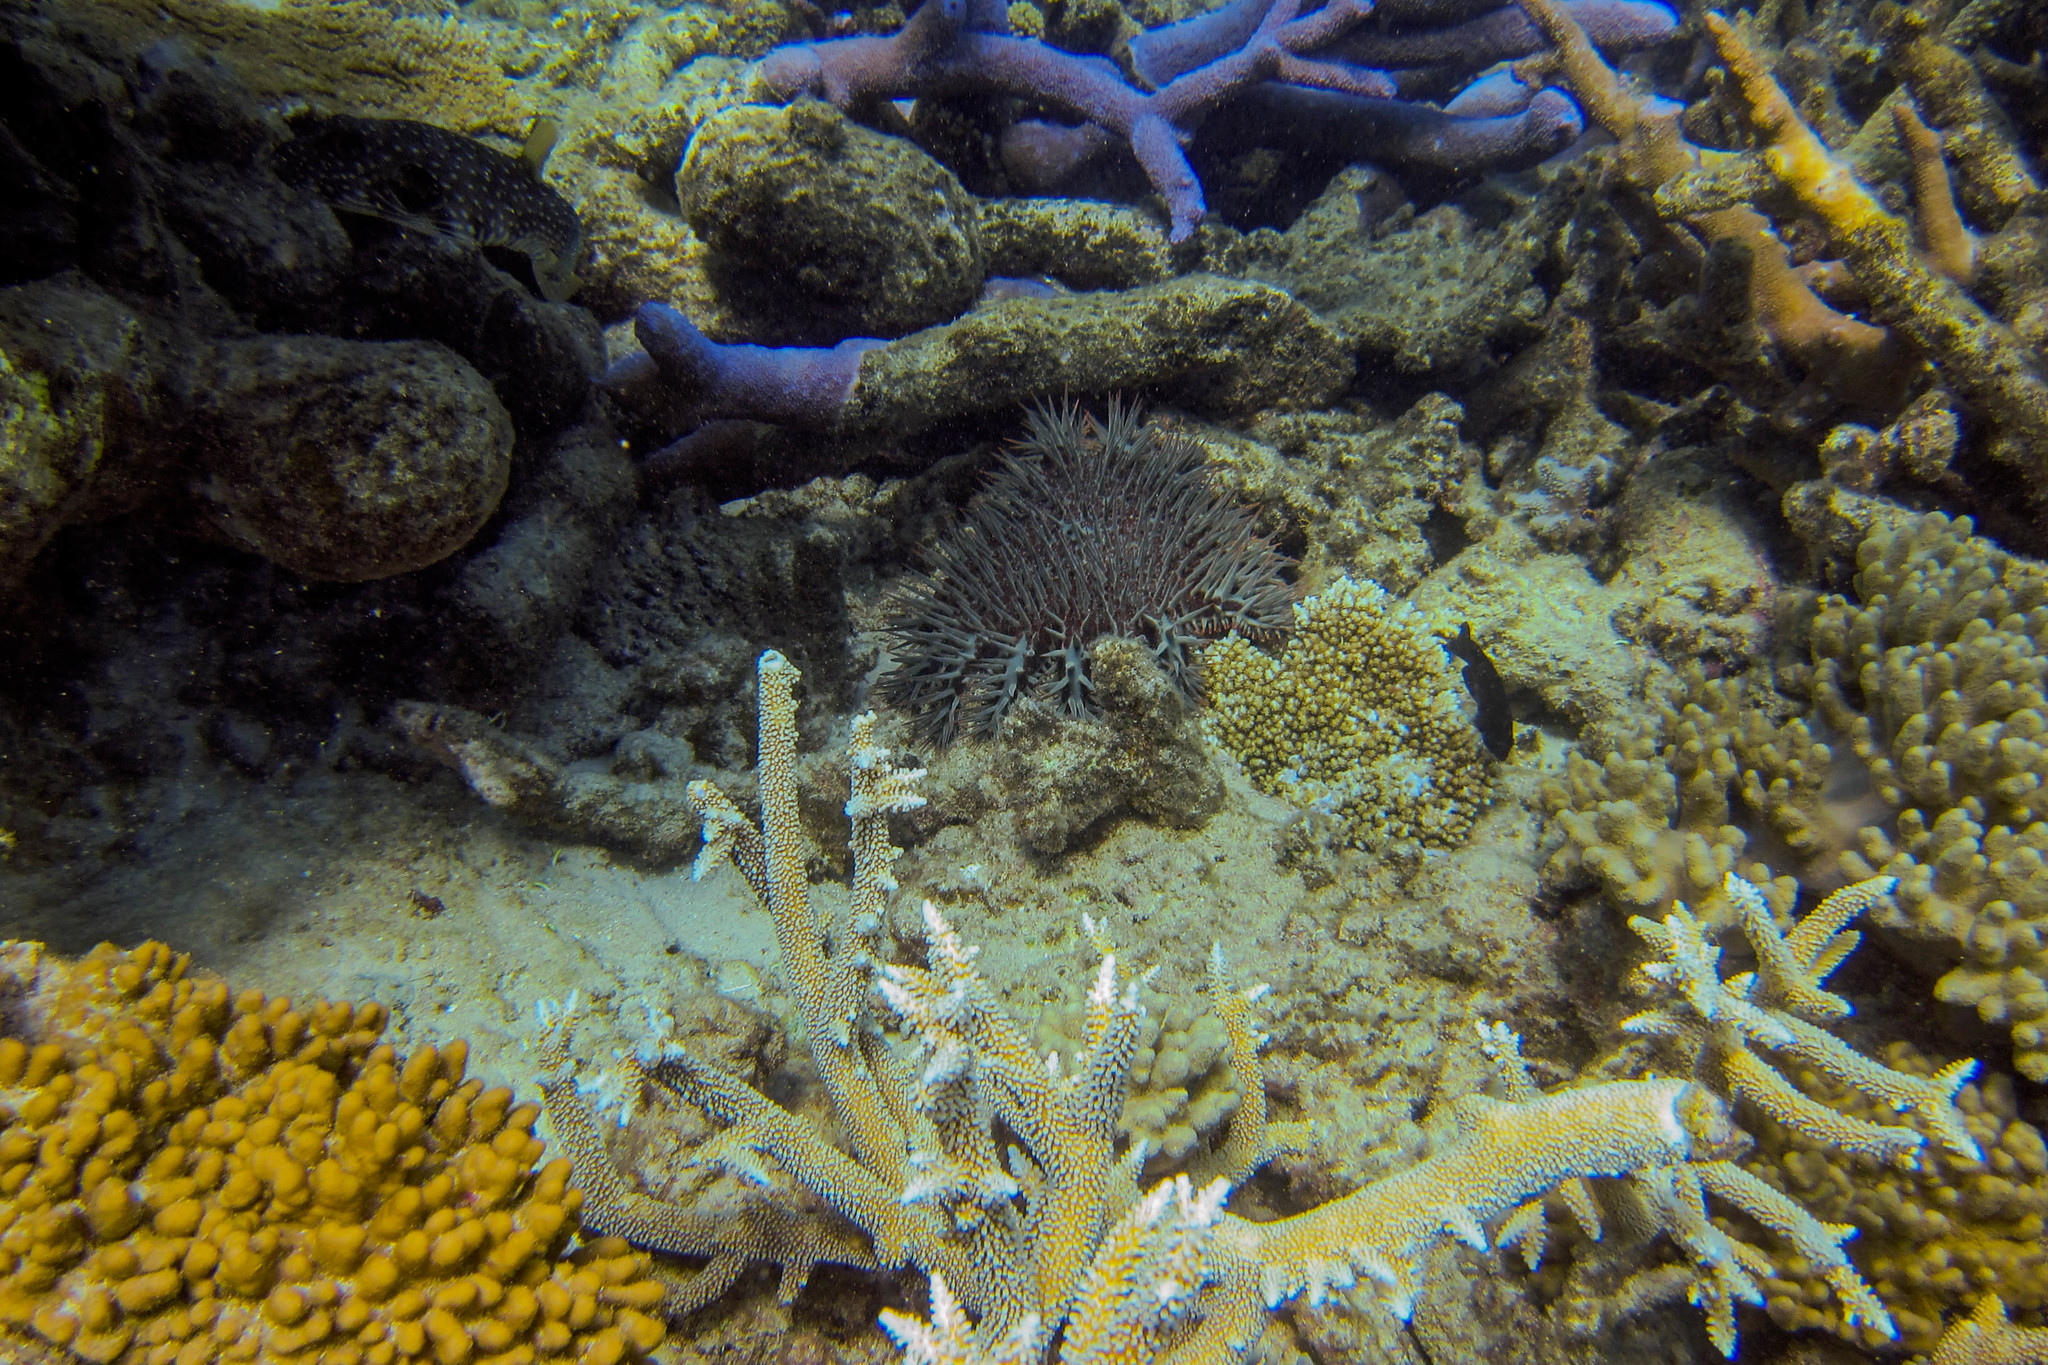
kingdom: Animalia
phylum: Cnidaria
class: Anthozoa
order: Scleractinia
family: Plerogyridae
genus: Physogyra
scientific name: Physogyra lichtensteini
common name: Tipped bubblegum coral
